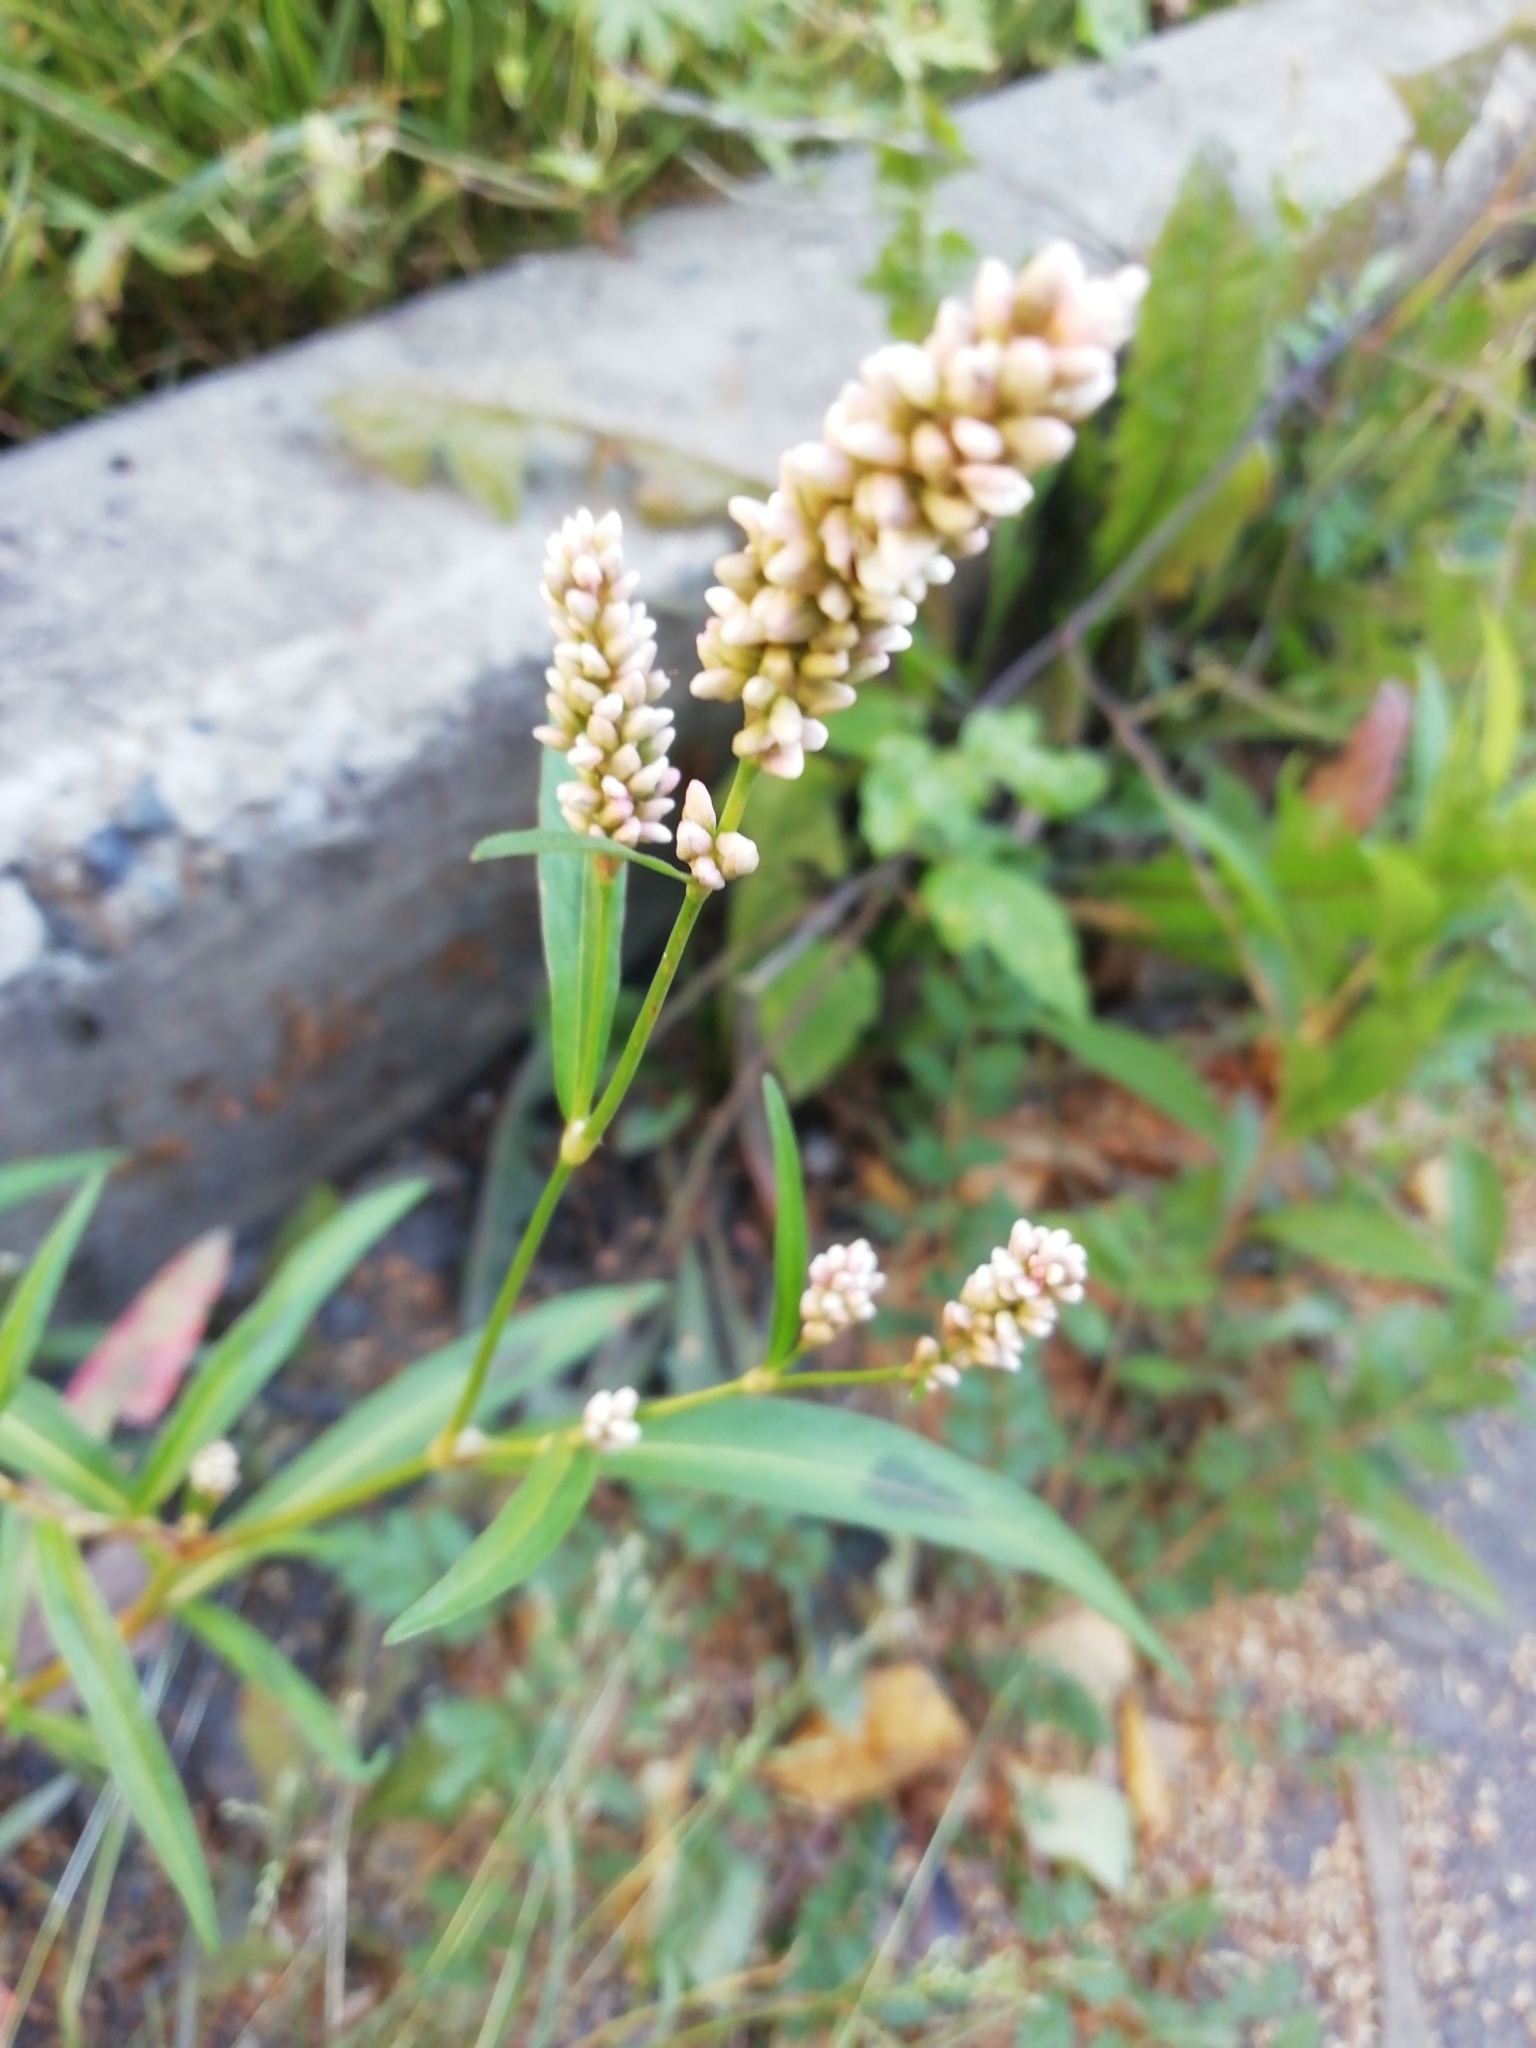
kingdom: Plantae
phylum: Tracheophyta
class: Magnoliopsida
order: Caryophyllales
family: Polygonaceae
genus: Persicaria
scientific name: Persicaria maculosa
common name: Redshank
